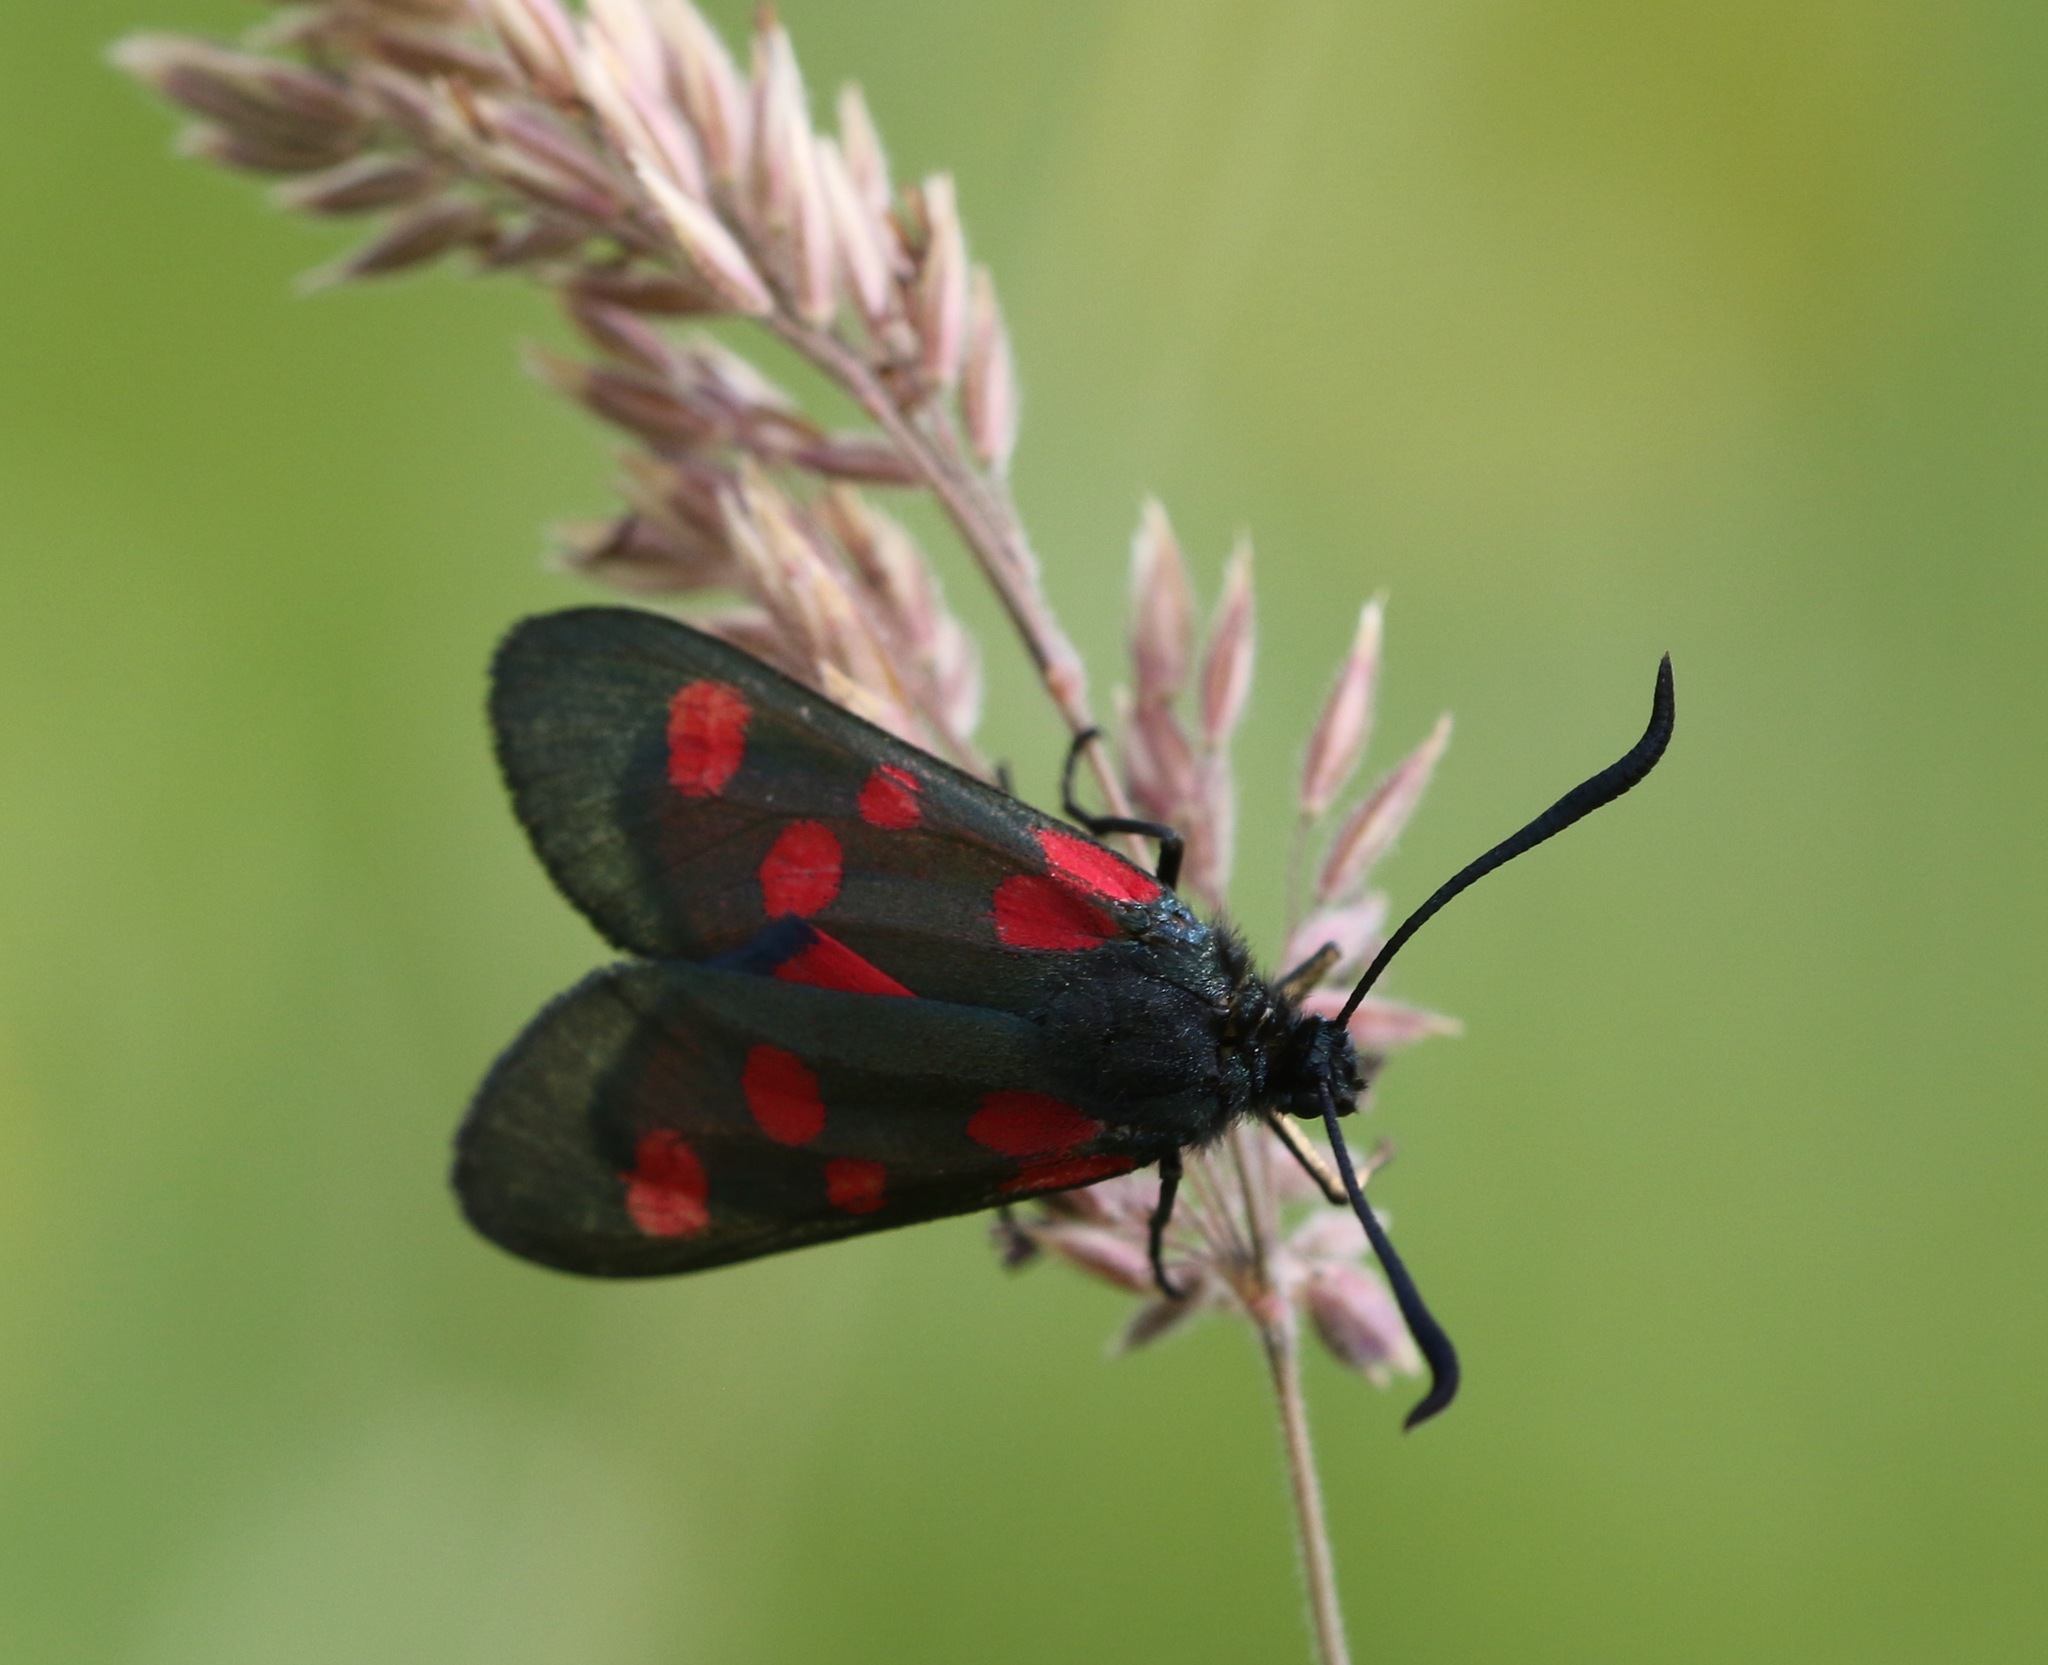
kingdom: Animalia
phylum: Arthropoda
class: Insecta
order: Lepidoptera
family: Zygaenidae
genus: Zygaena
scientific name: Zygaena lonicerae
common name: Narrow-bordered five-spot burnet
